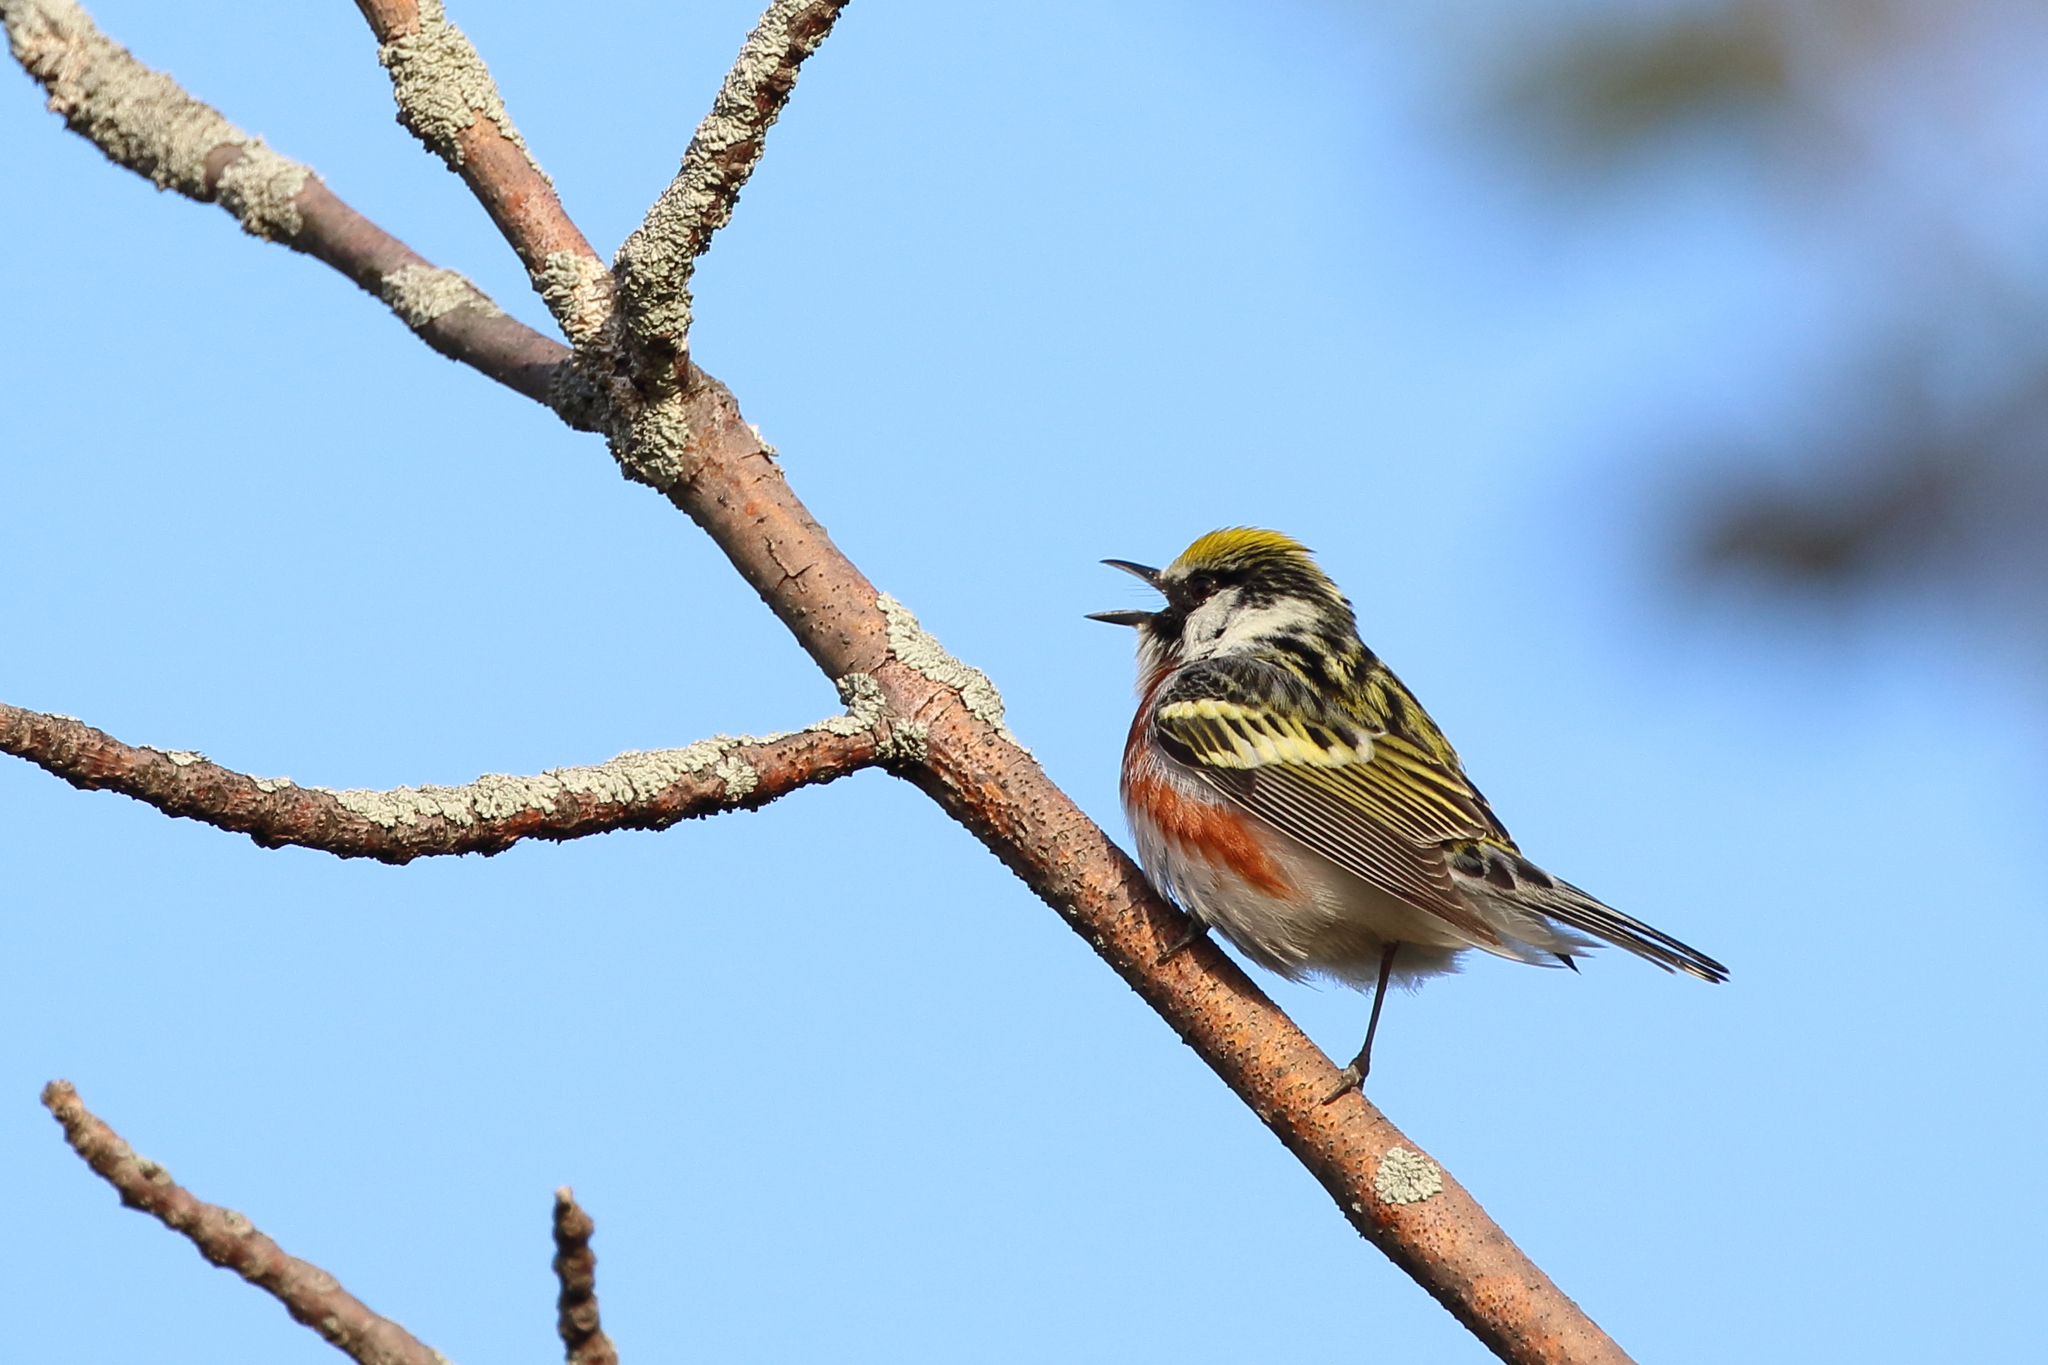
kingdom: Animalia
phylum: Chordata
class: Aves
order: Passeriformes
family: Parulidae
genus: Setophaga
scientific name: Setophaga pensylvanica
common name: Chestnut-sided warbler
